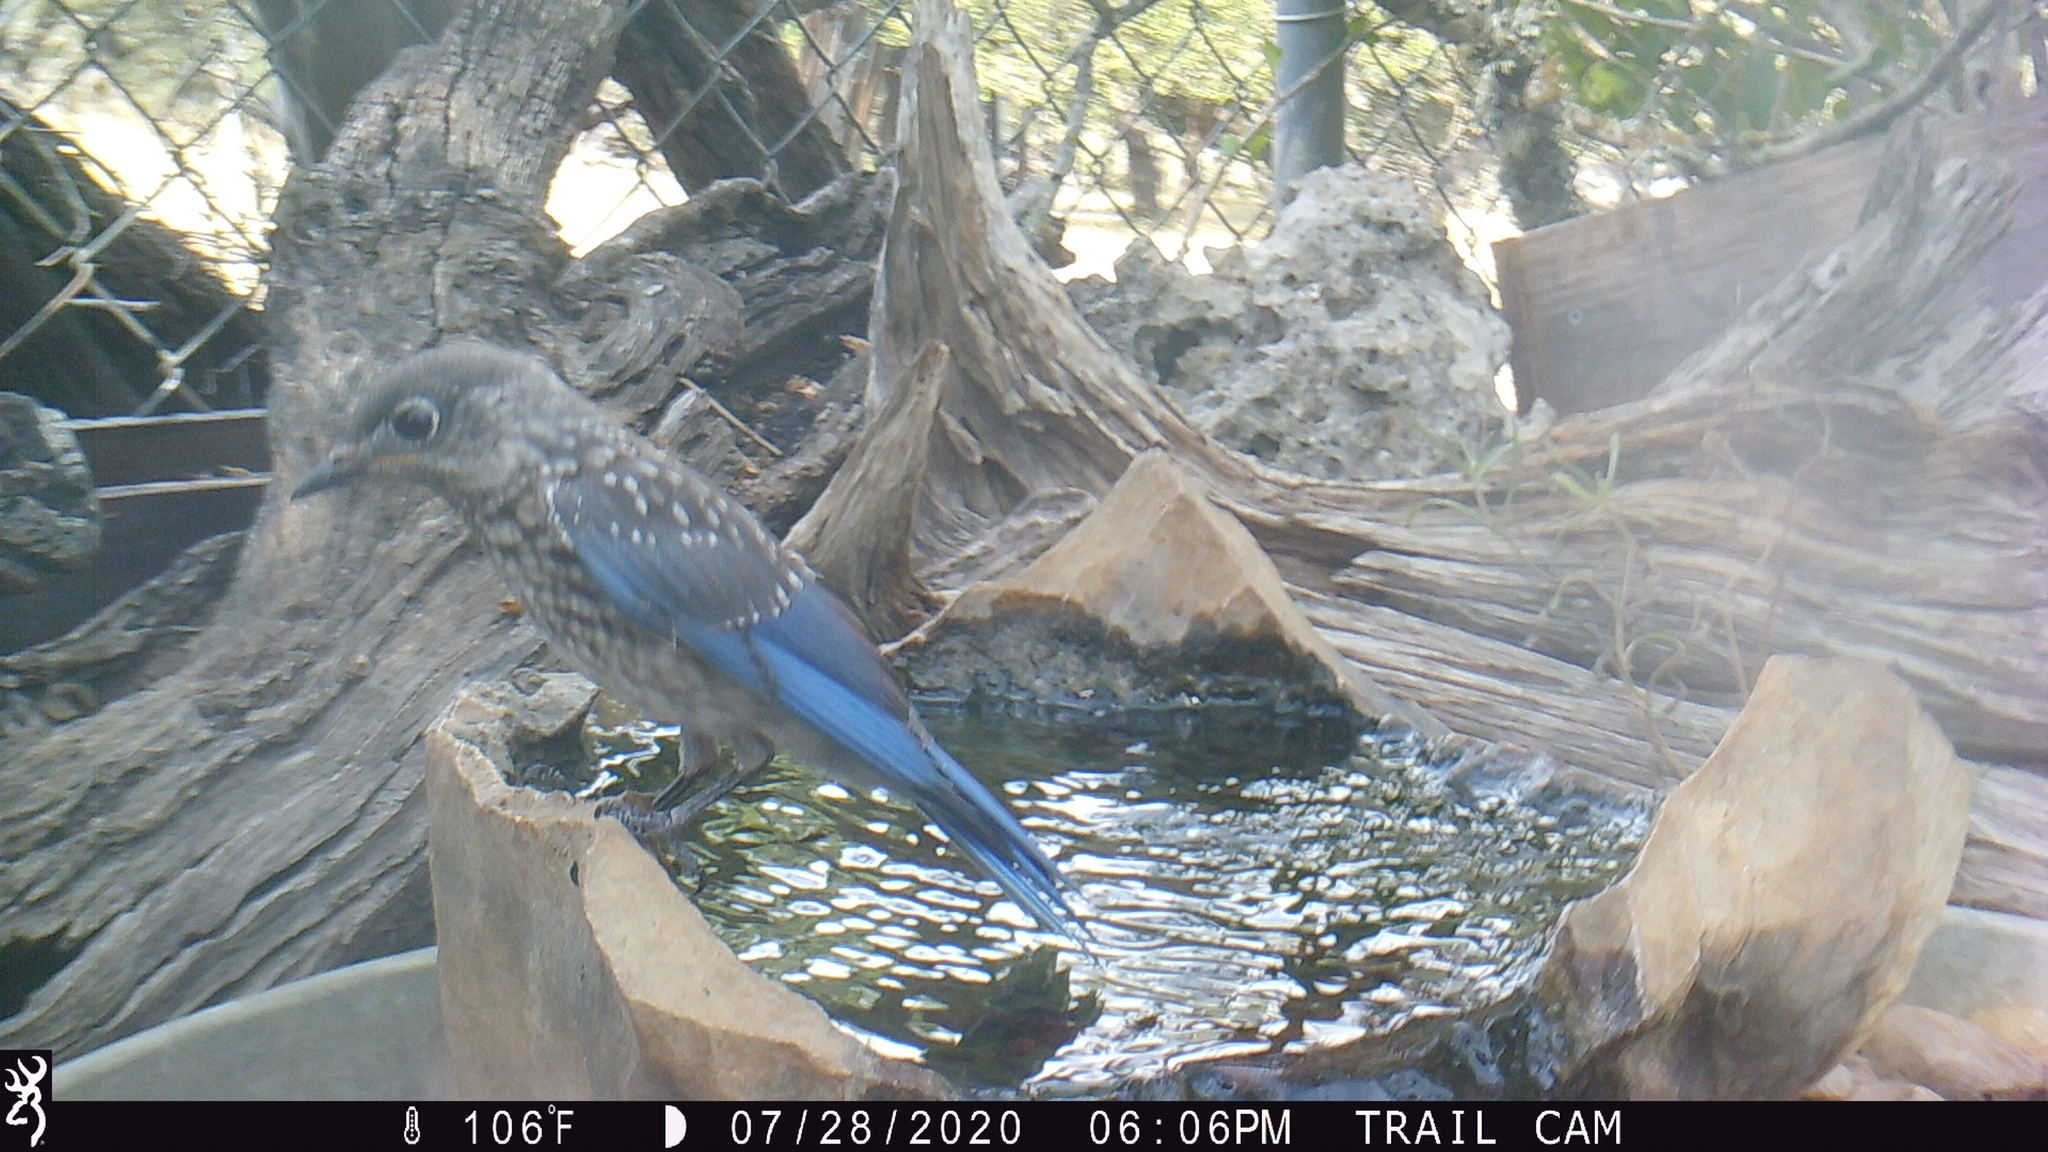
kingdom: Animalia
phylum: Chordata
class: Aves
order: Passeriformes
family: Turdidae
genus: Sialia
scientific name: Sialia sialis
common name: Eastern bluebird
